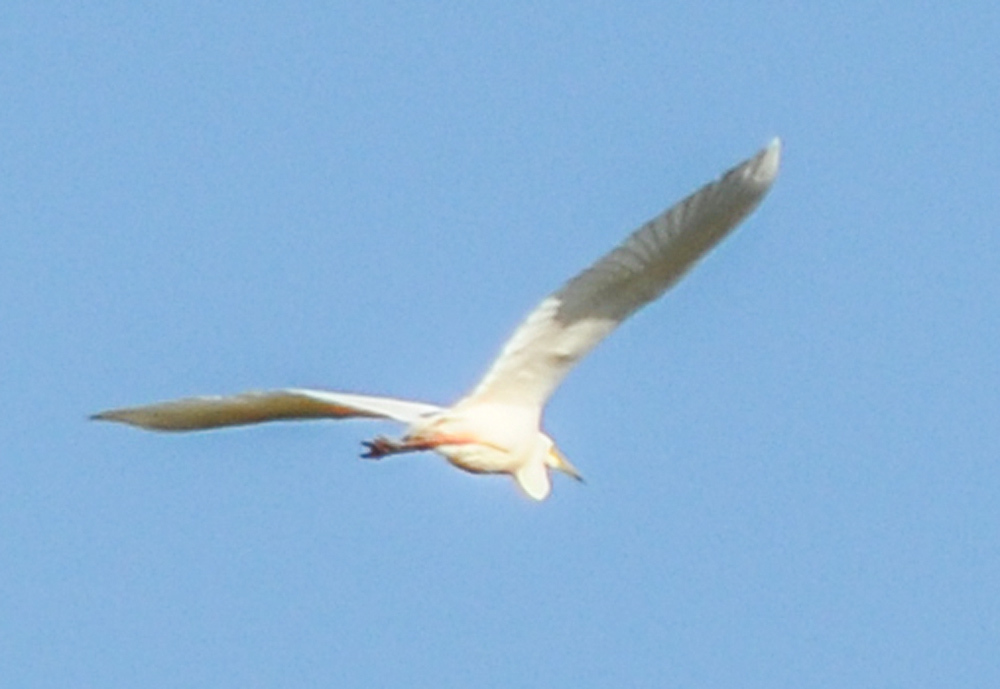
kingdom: Animalia
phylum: Chordata
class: Aves
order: Pelecaniformes
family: Ardeidae
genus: Ardea
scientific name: Ardea alba
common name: Great egret
